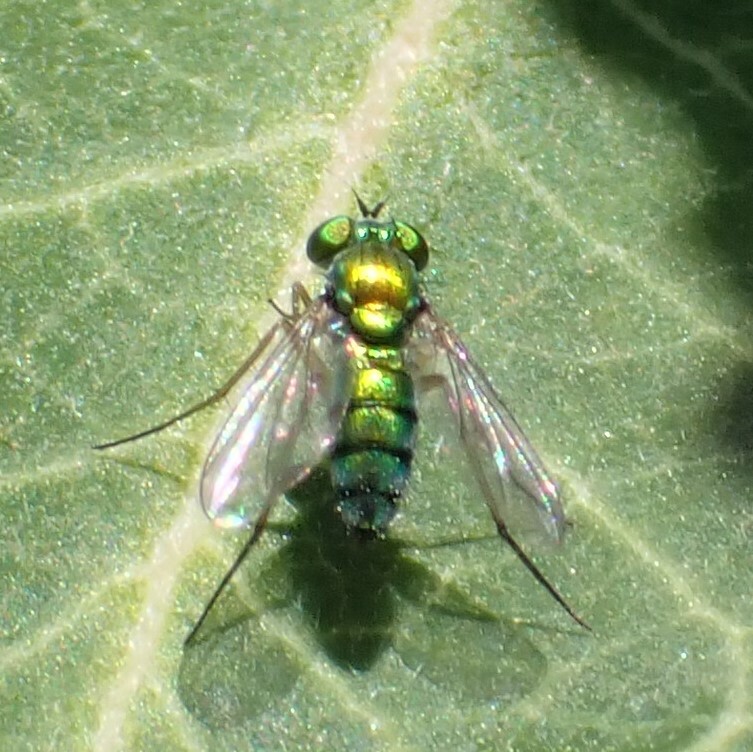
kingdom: Animalia
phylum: Arthropoda
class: Insecta
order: Diptera
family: Dolichopodidae
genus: Condylostylus
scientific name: Condylostylus
